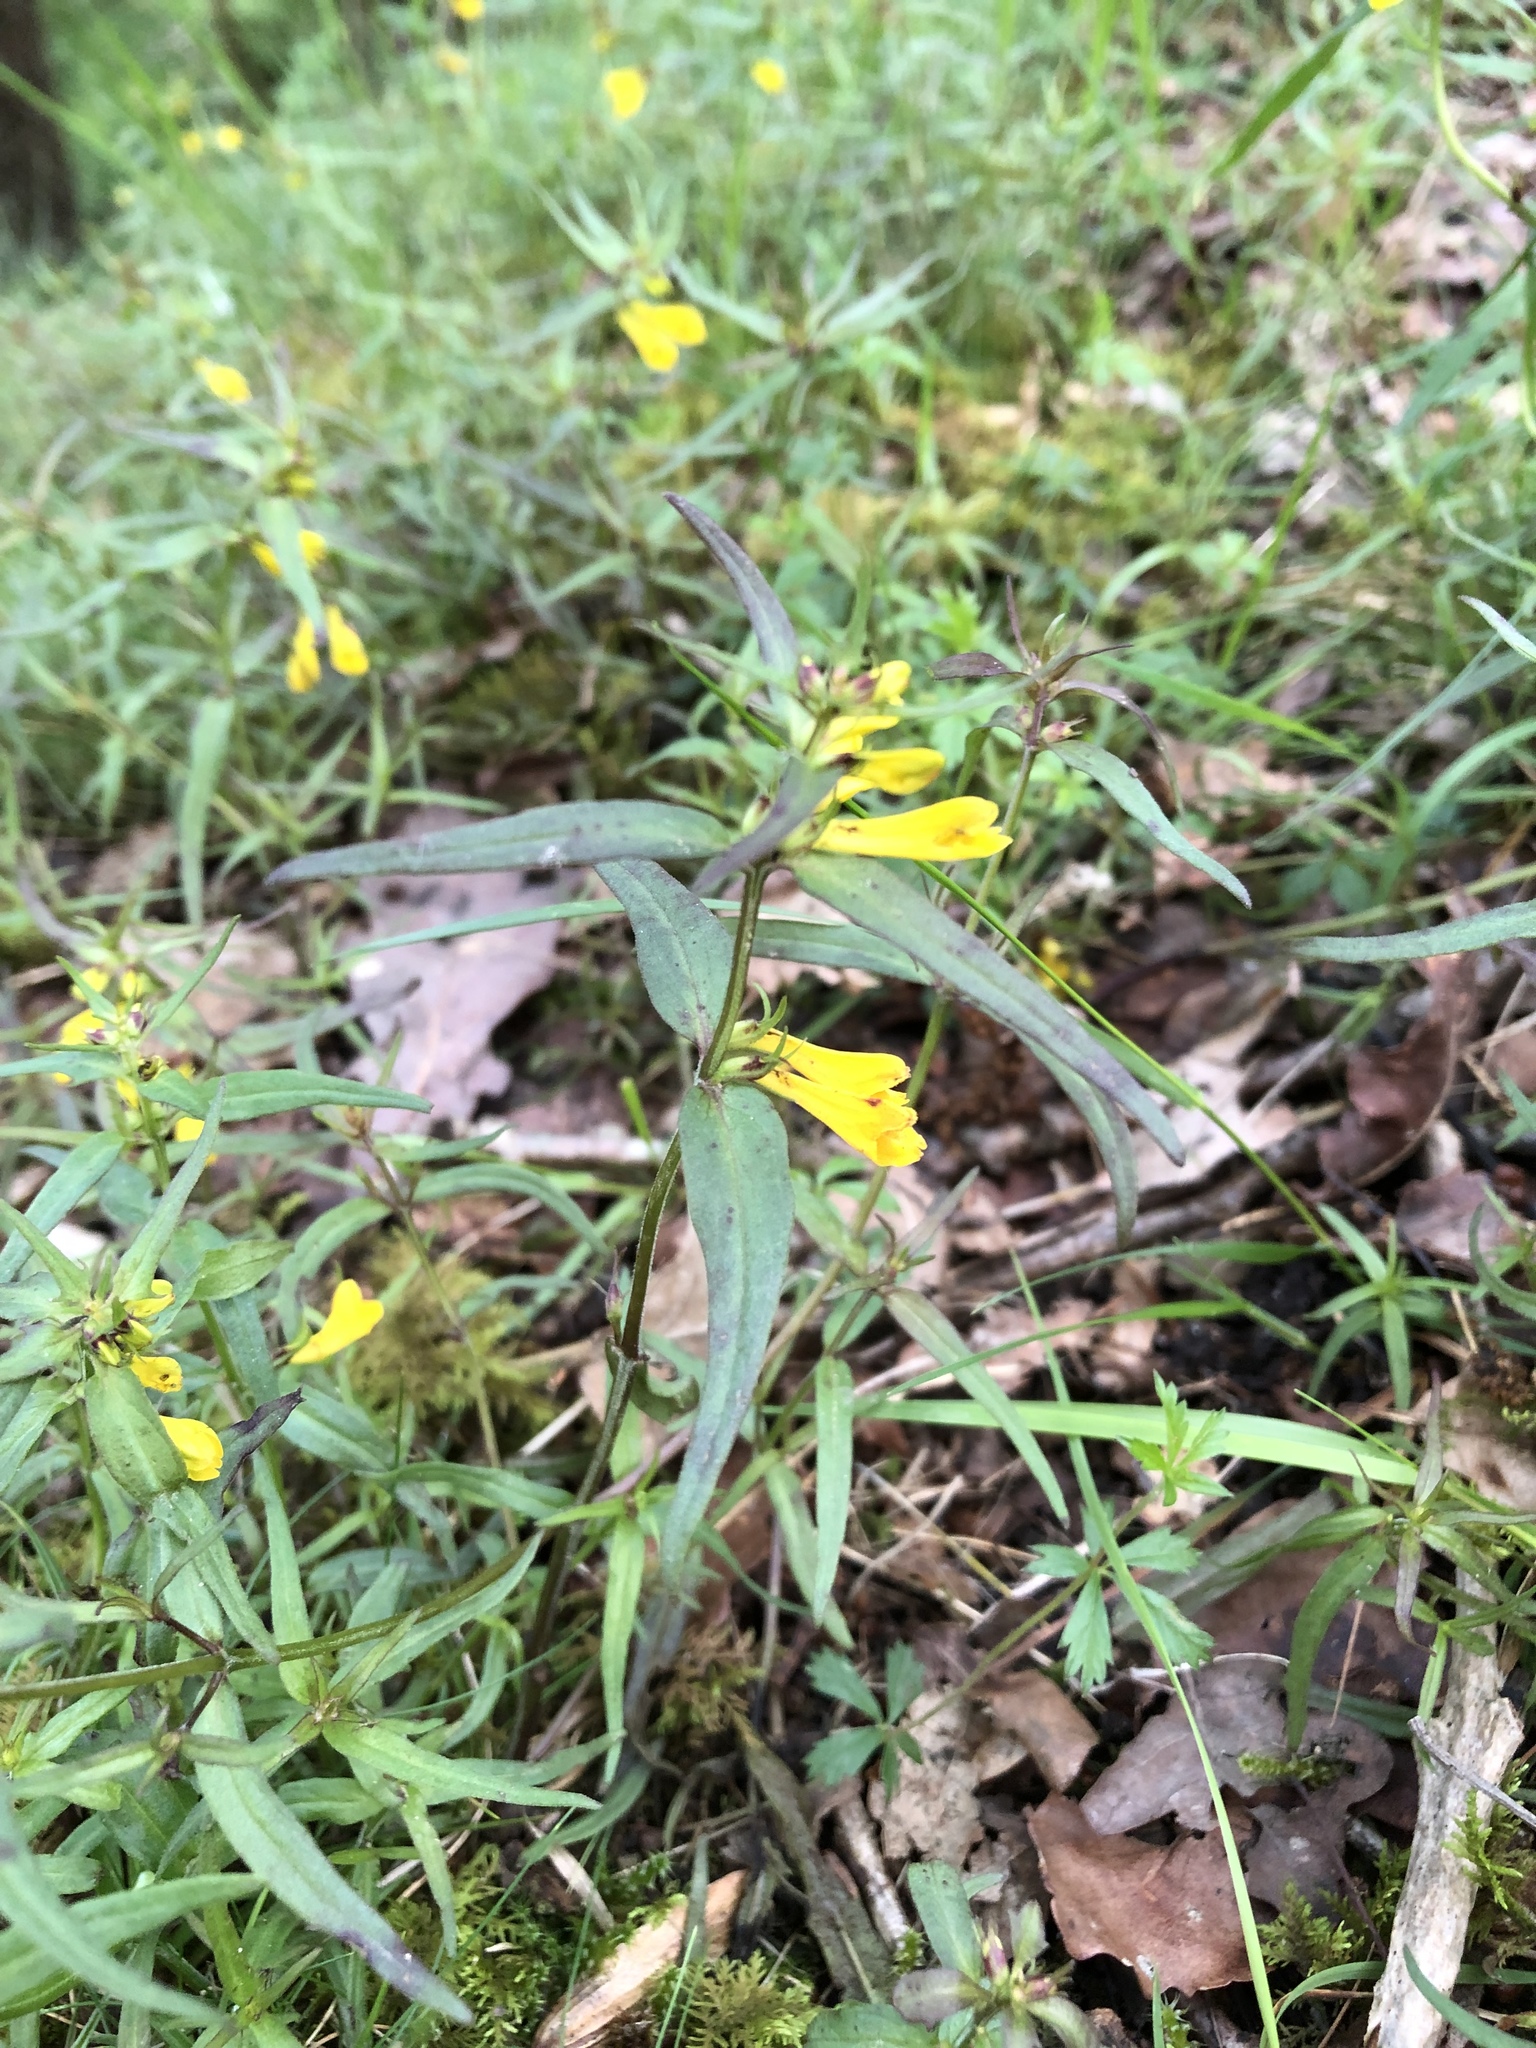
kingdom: Plantae
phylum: Tracheophyta
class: Magnoliopsida
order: Lamiales
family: Orobanchaceae
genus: Melampyrum
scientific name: Melampyrum pratense
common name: Common cow-wheat
